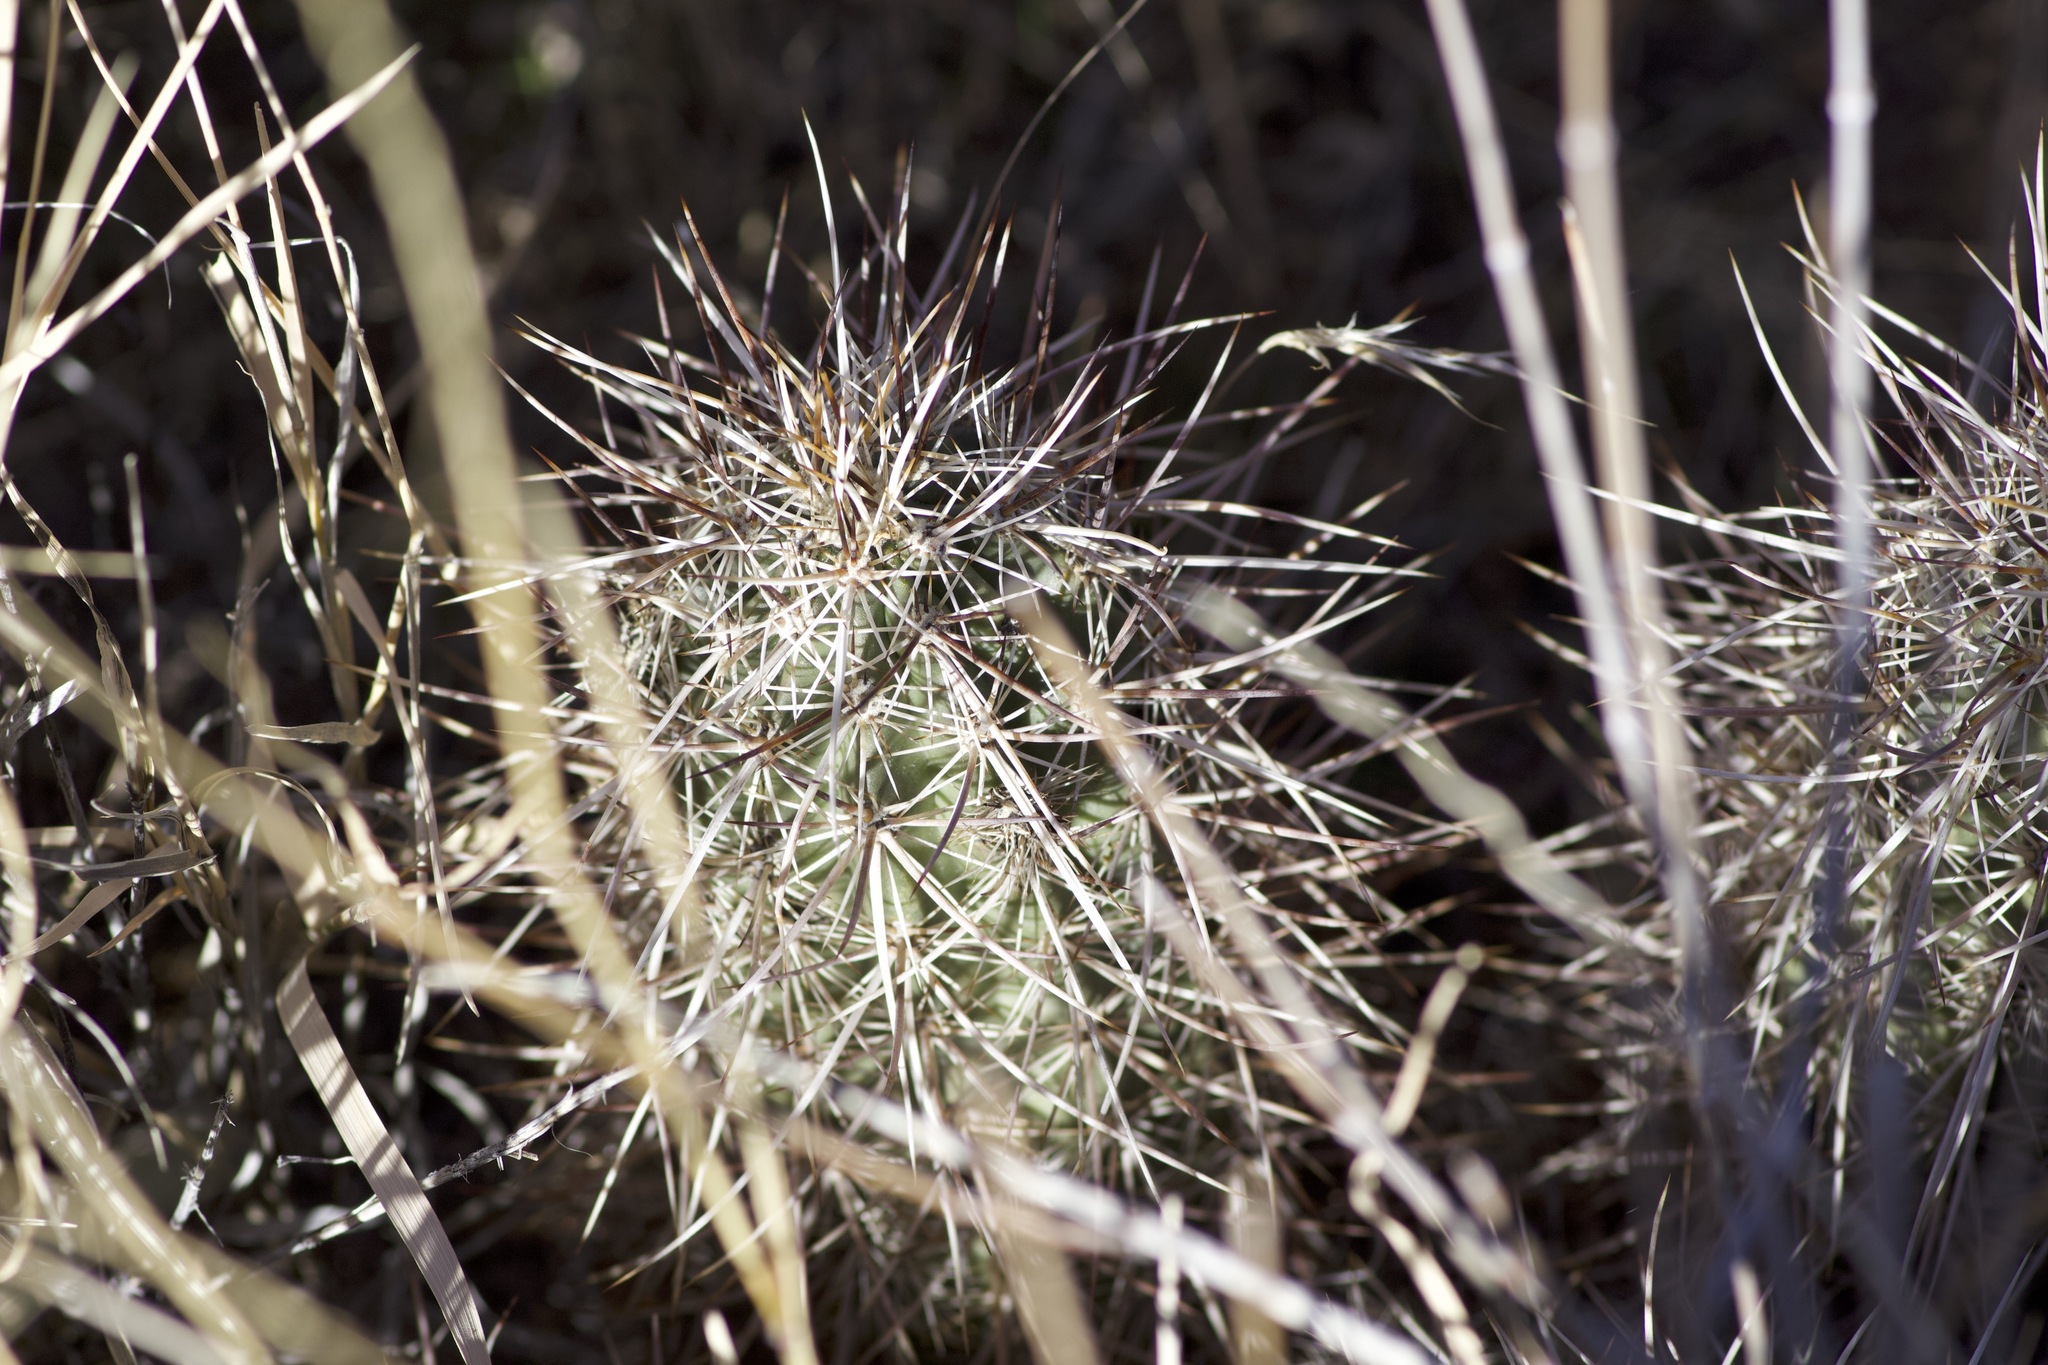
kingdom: Plantae
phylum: Tracheophyta
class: Magnoliopsida
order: Caryophyllales
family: Cactaceae
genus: Echinocereus
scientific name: Echinocereus engelmannii
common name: Engelmann's hedgehog cactus
